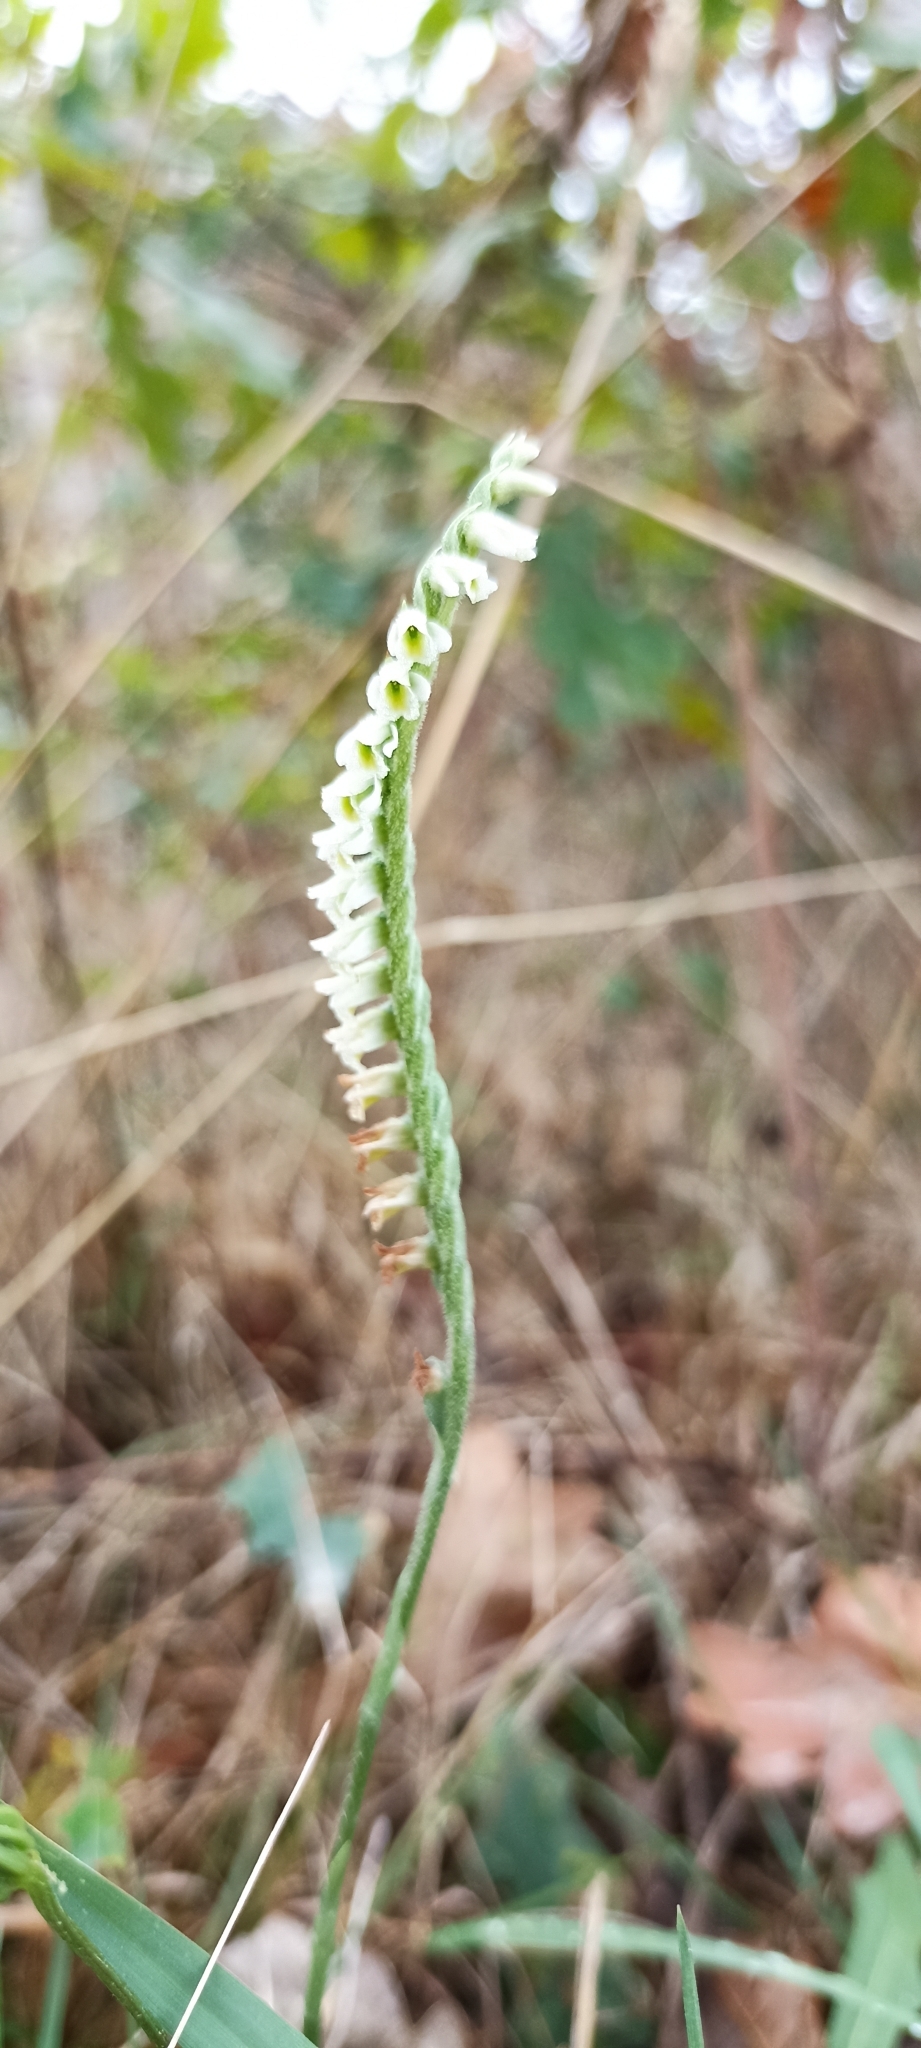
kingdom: Plantae
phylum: Tracheophyta
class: Liliopsida
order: Asparagales
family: Orchidaceae
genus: Spiranthes
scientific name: Spiranthes spiralis
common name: Autumn lady's-tresses
